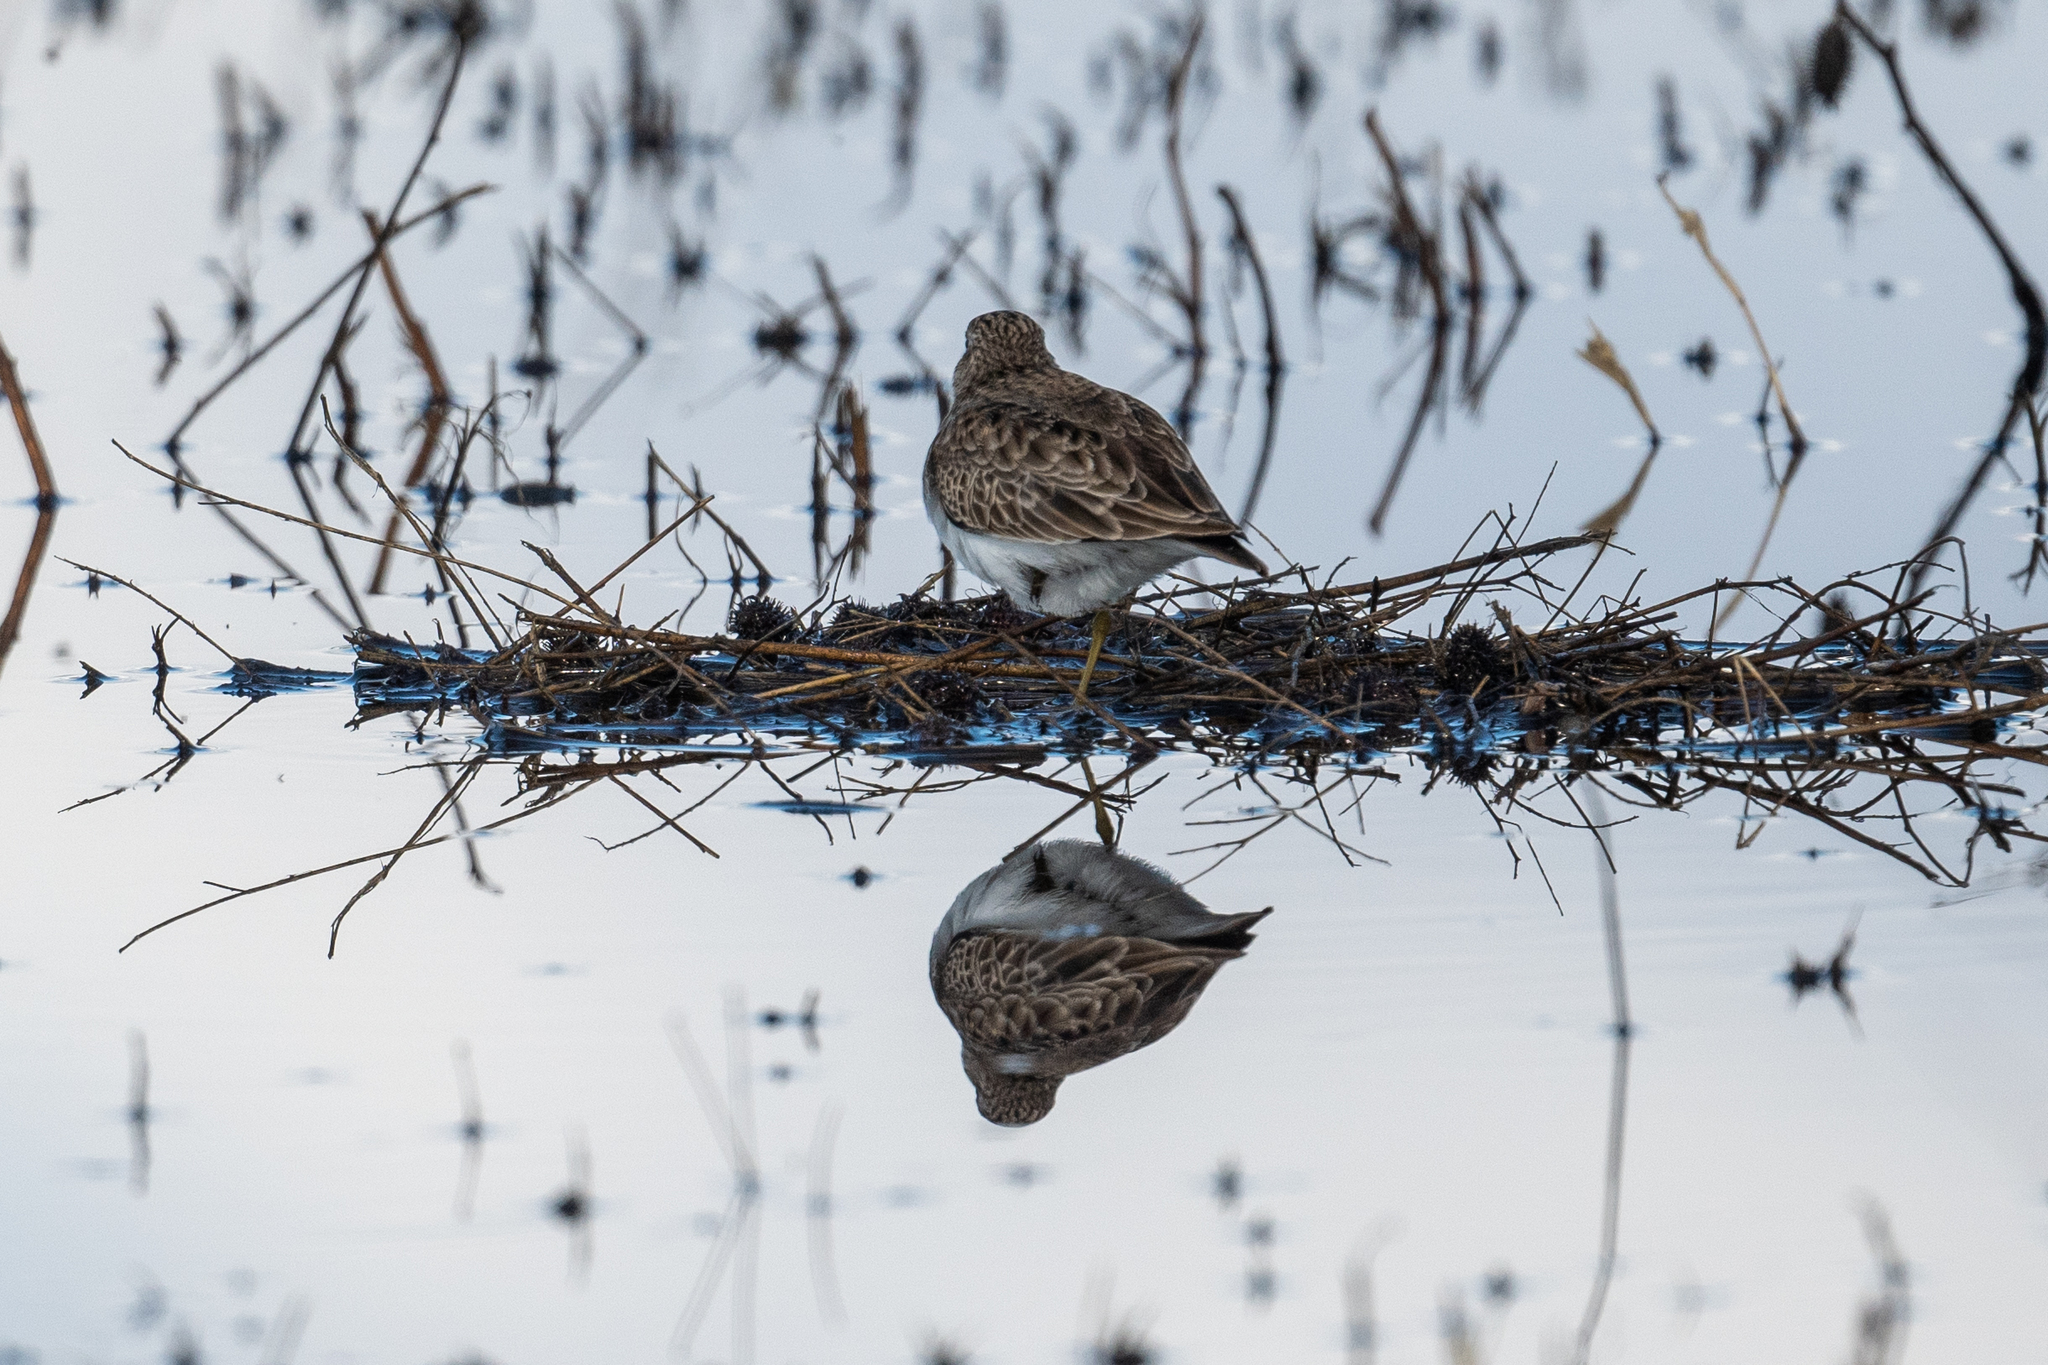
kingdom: Animalia
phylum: Chordata
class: Aves
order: Charadriiformes
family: Scolopacidae
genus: Calidris
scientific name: Calidris minutilla
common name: Least sandpiper
